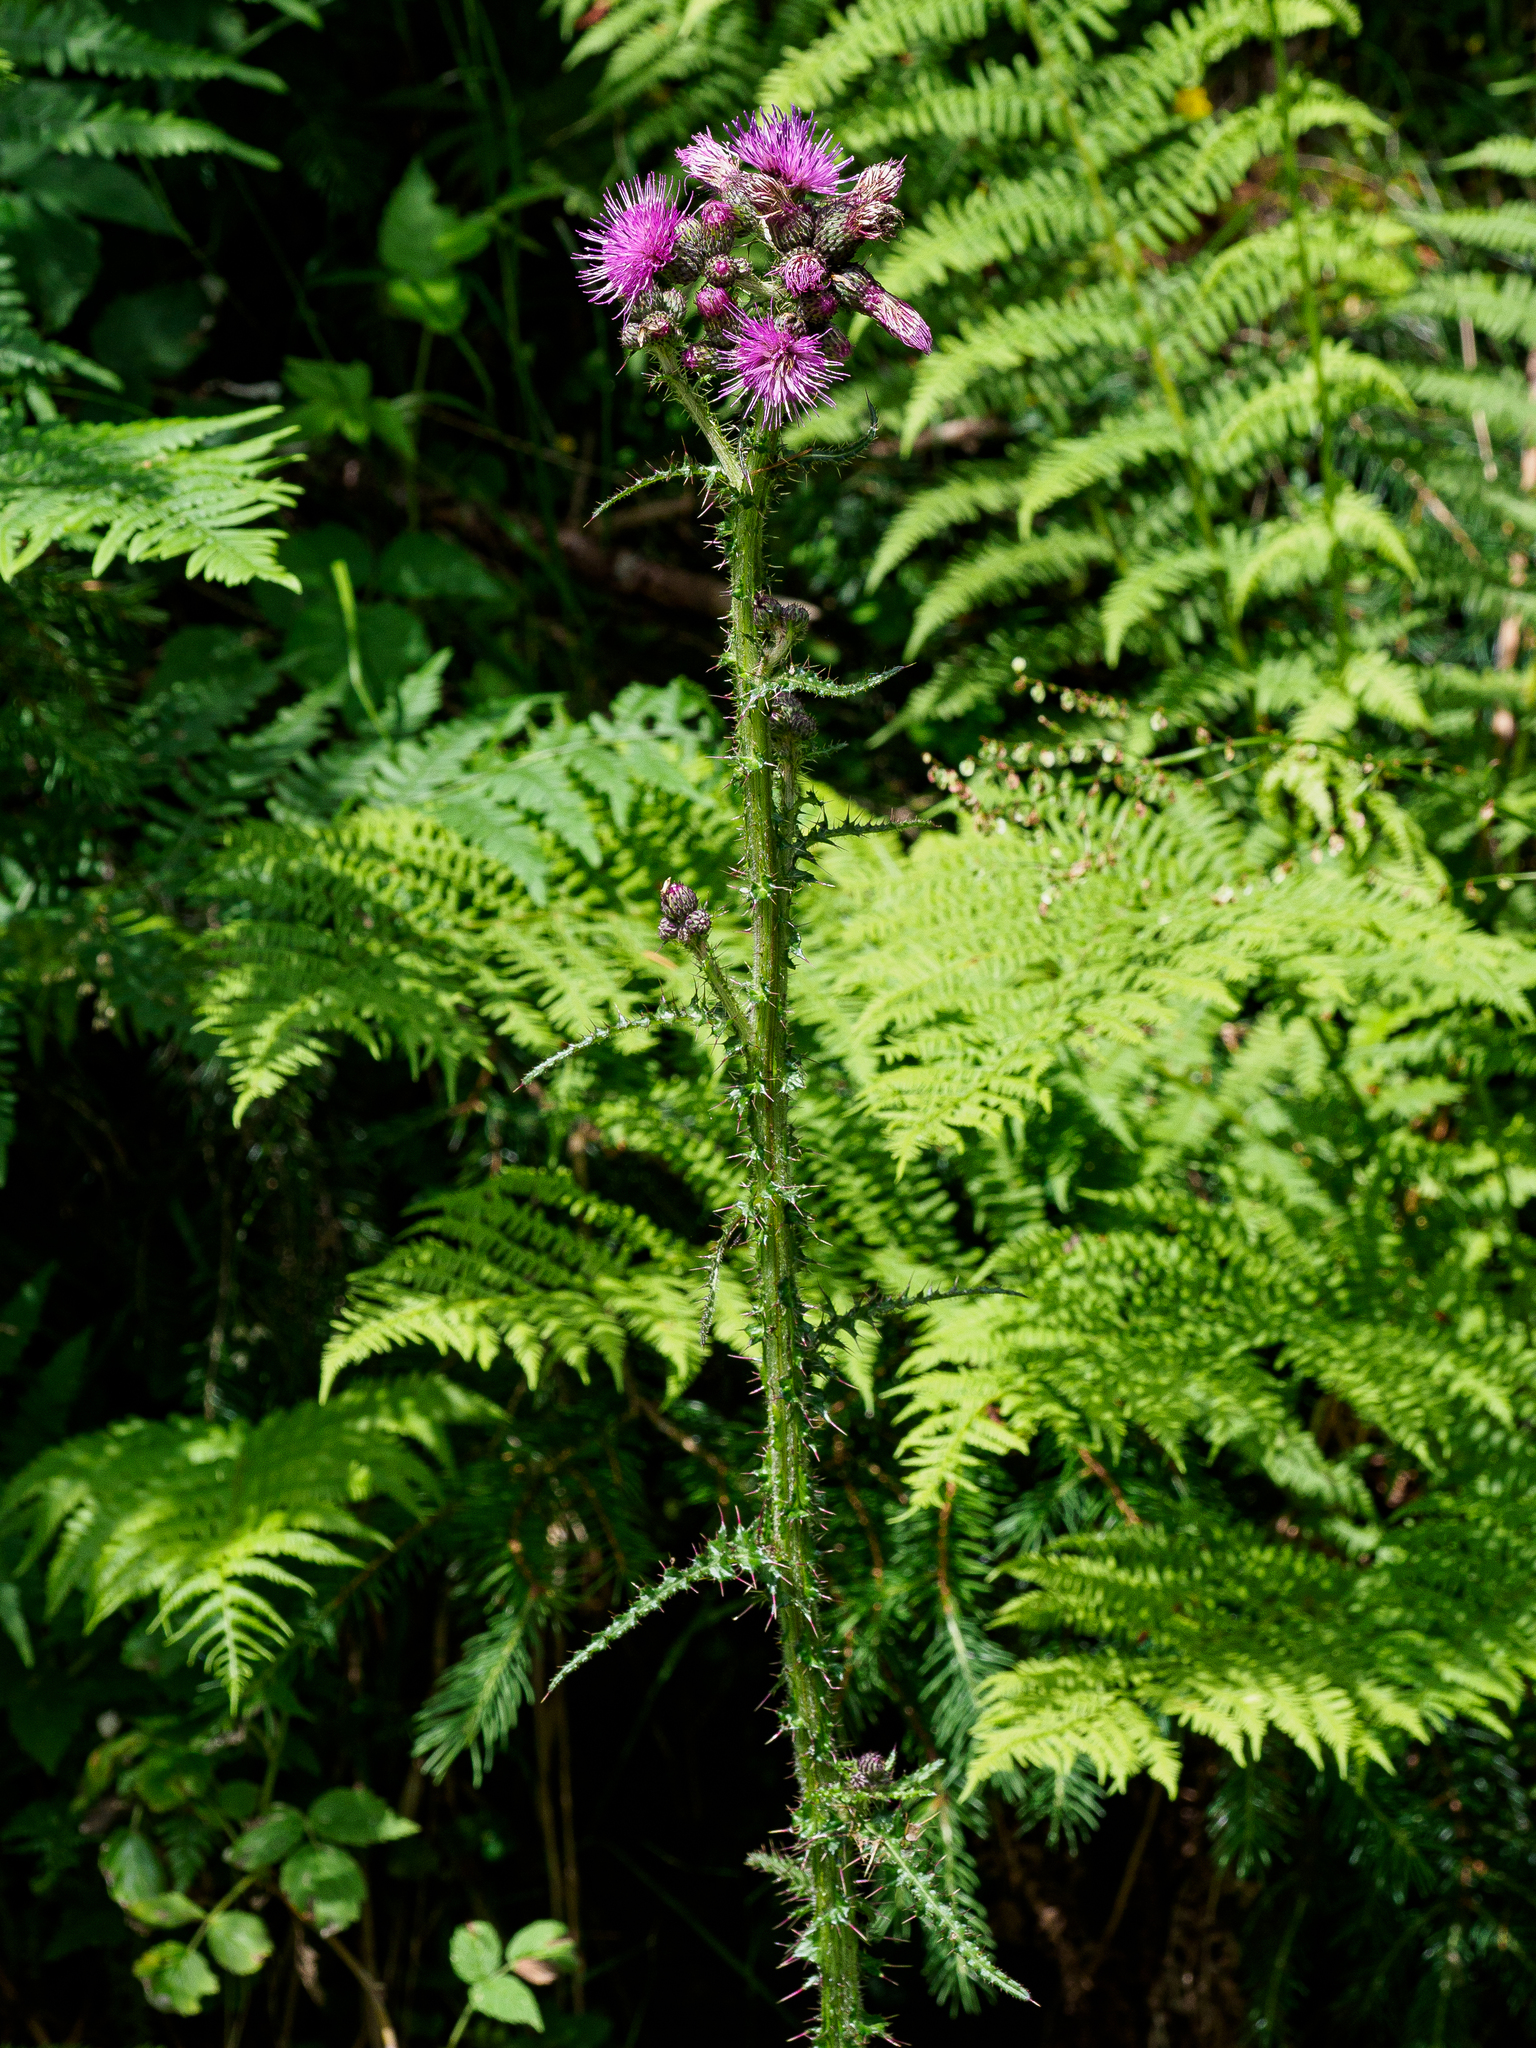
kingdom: Plantae
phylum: Tracheophyta
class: Magnoliopsida
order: Asterales
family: Asteraceae
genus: Cirsium
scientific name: Cirsium palustre
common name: Marsh thistle
